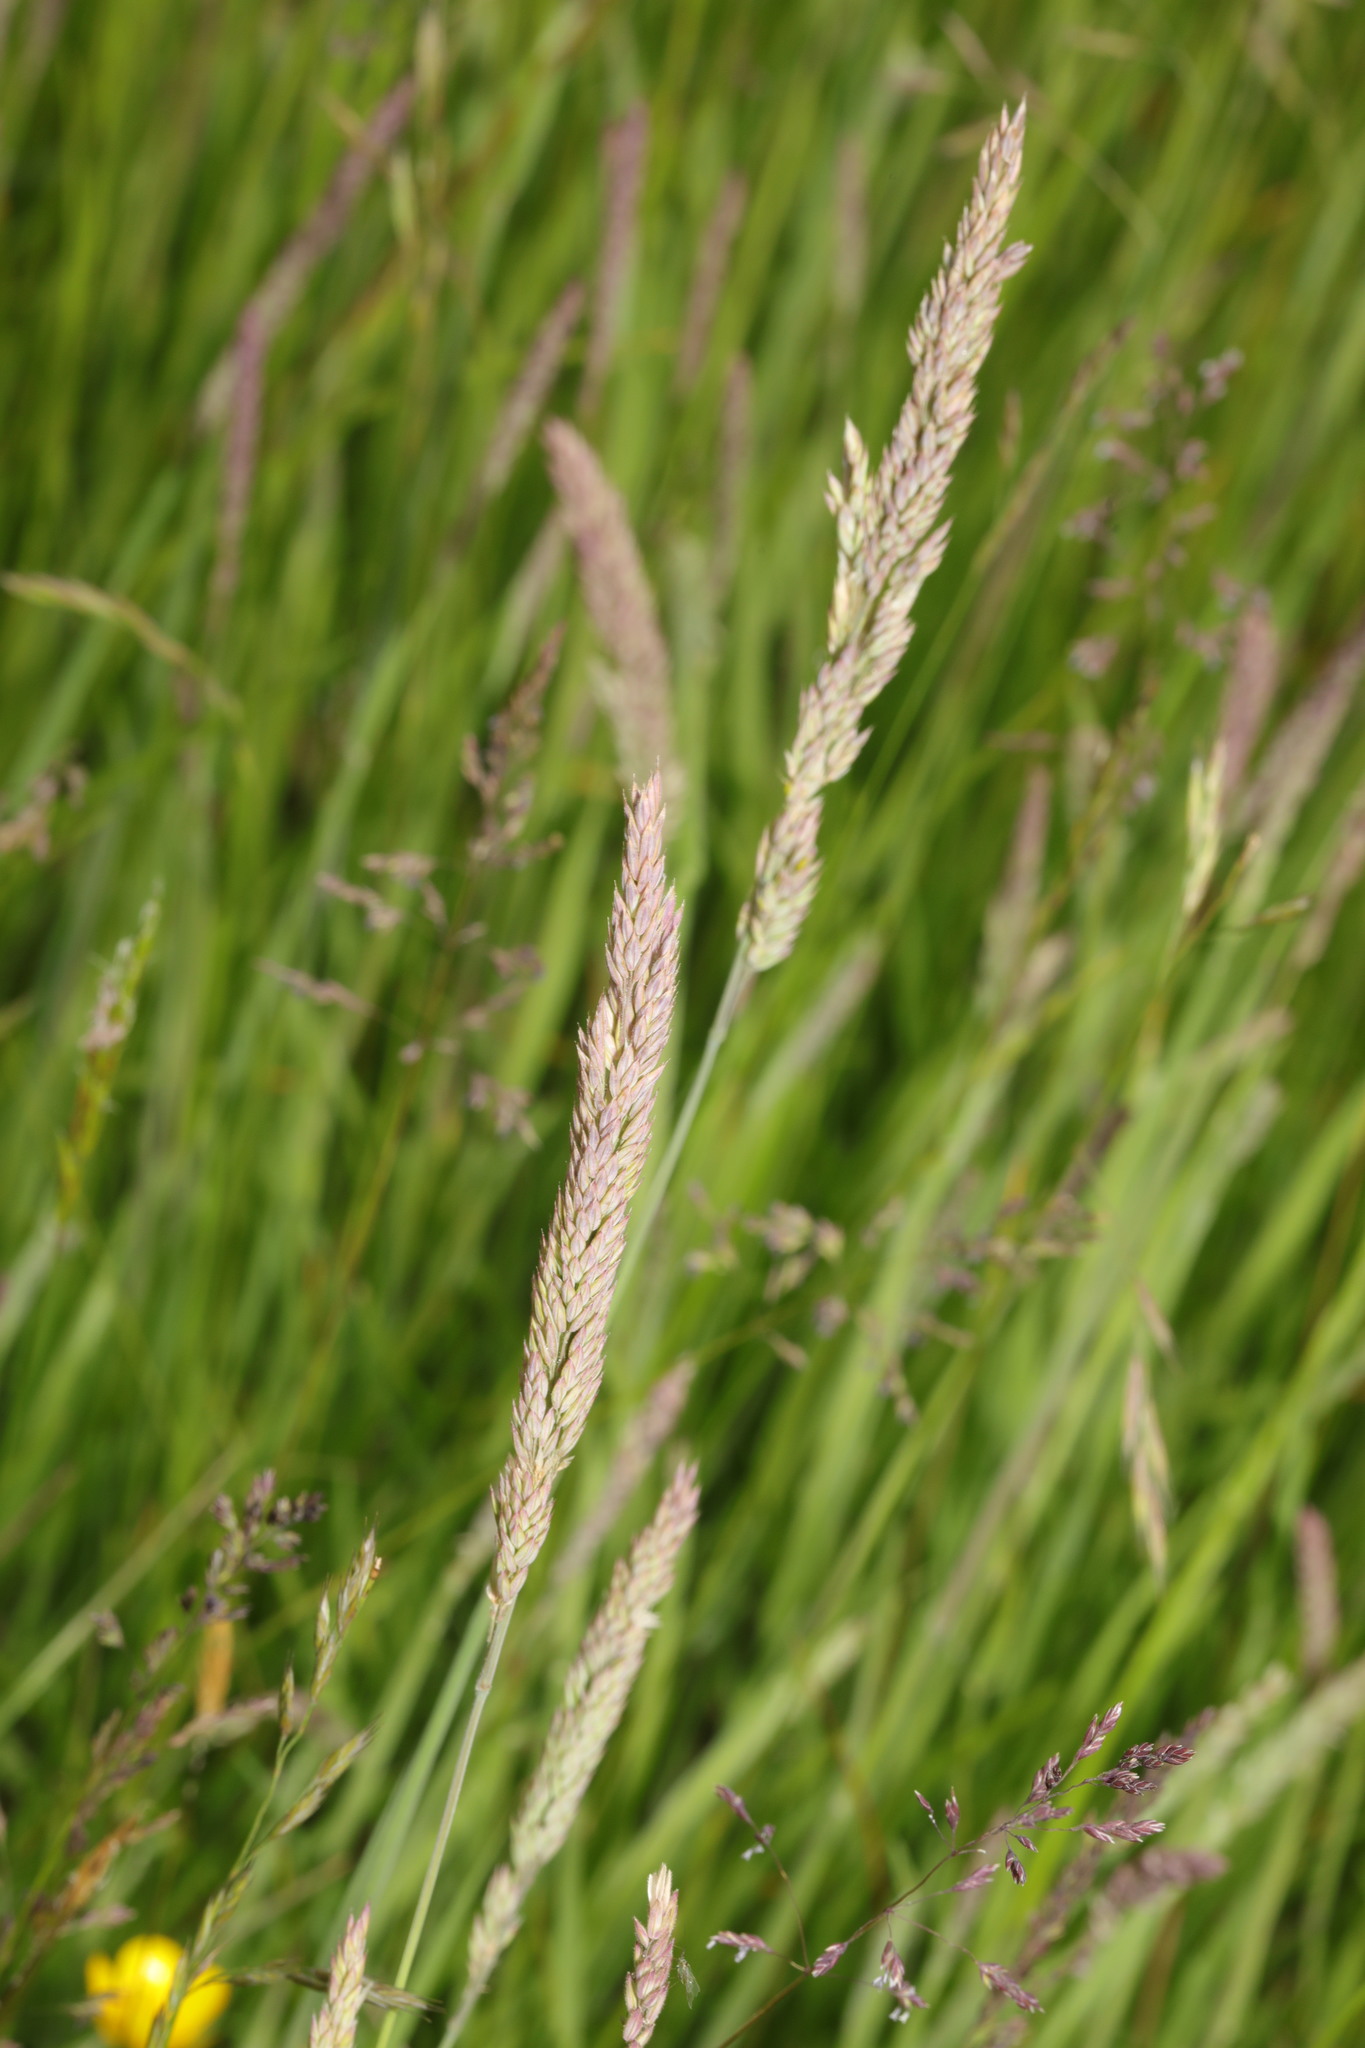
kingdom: Plantae
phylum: Tracheophyta
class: Liliopsida
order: Poales
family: Poaceae
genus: Holcus
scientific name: Holcus lanatus
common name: Yorkshire-fog
